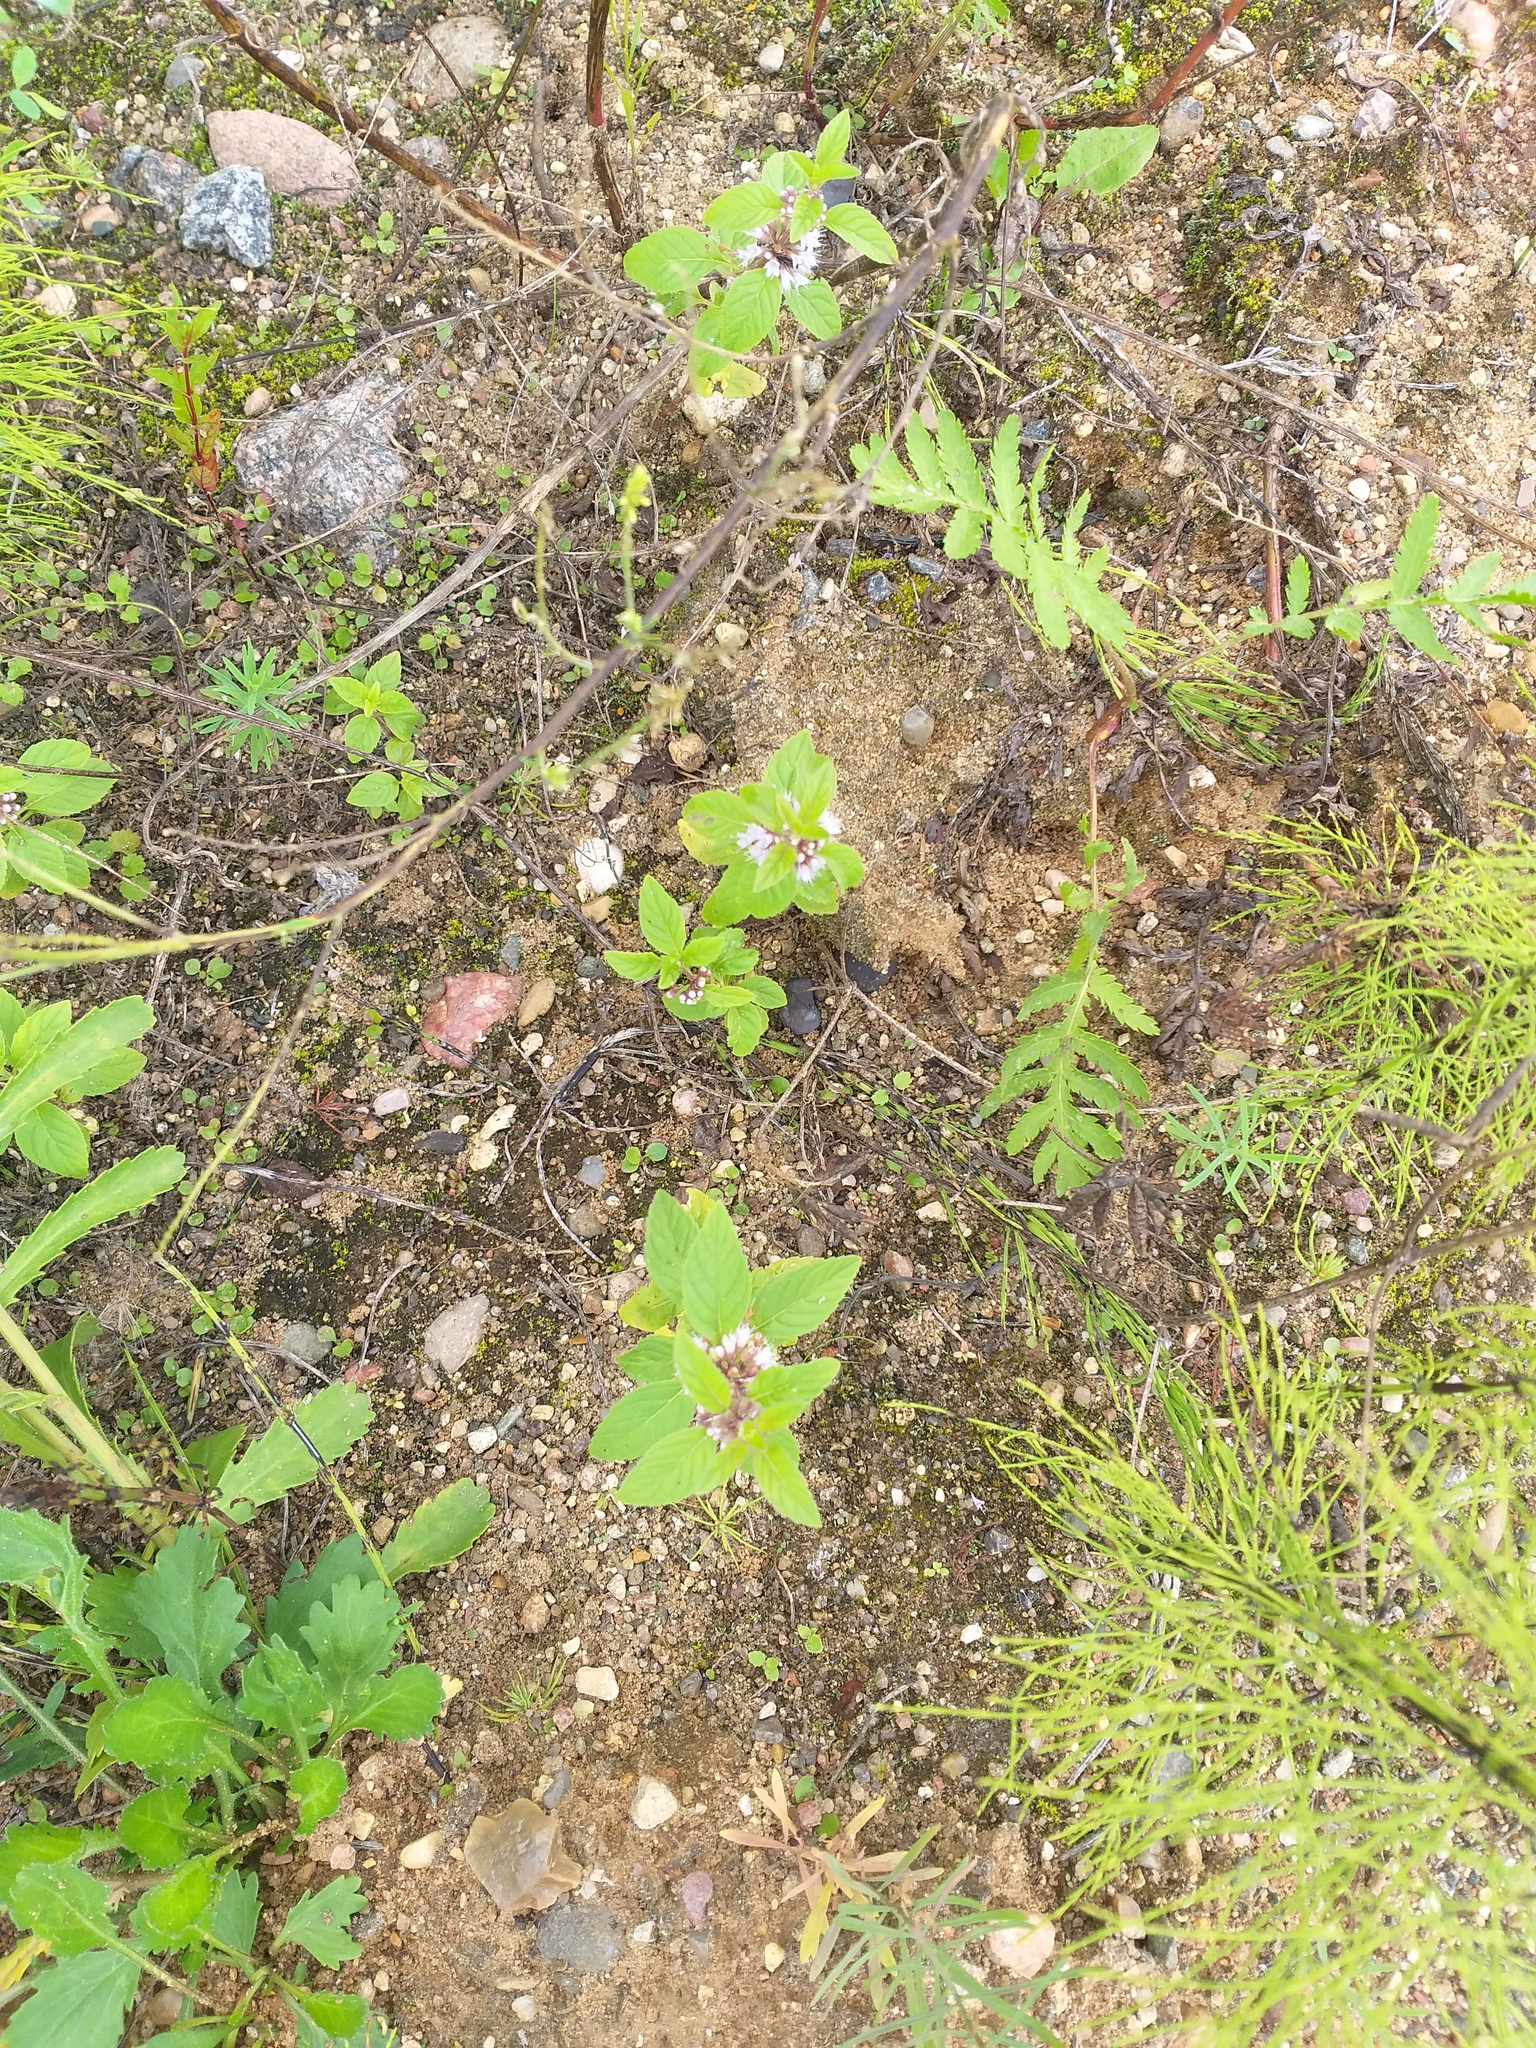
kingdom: Plantae
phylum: Tracheophyta
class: Magnoliopsida
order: Lamiales
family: Lamiaceae
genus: Mentha
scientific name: Mentha arvensis
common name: Corn mint
